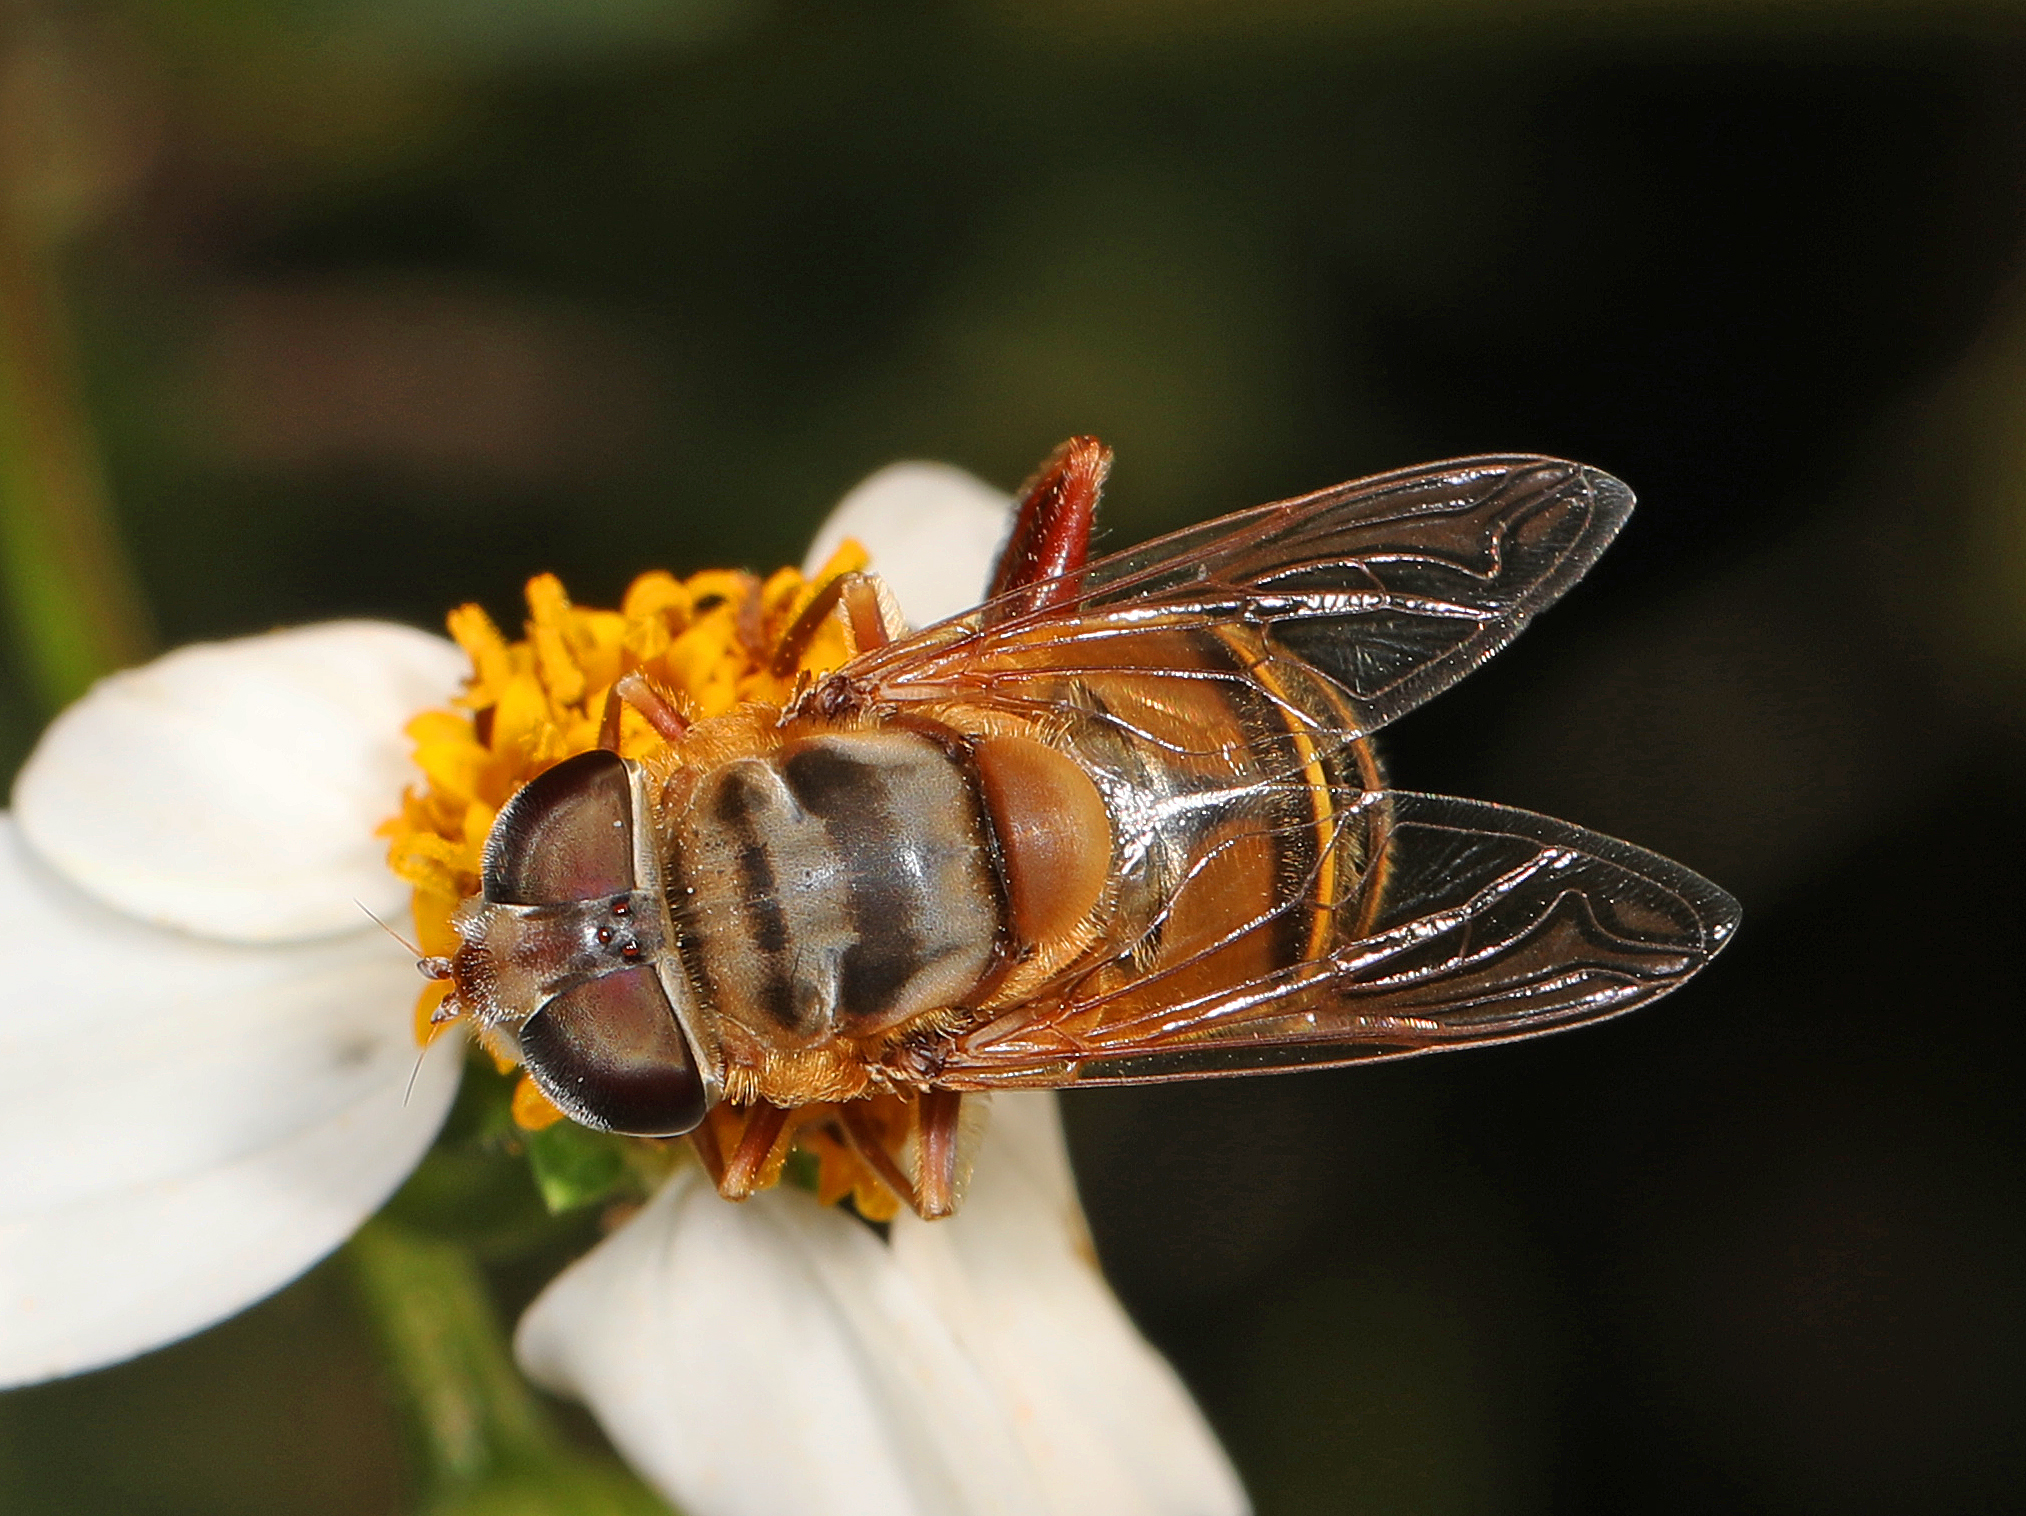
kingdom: Animalia
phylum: Arthropoda
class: Insecta
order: Diptera
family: Syrphidae
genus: Palpada
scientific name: Palpada vinetorum
